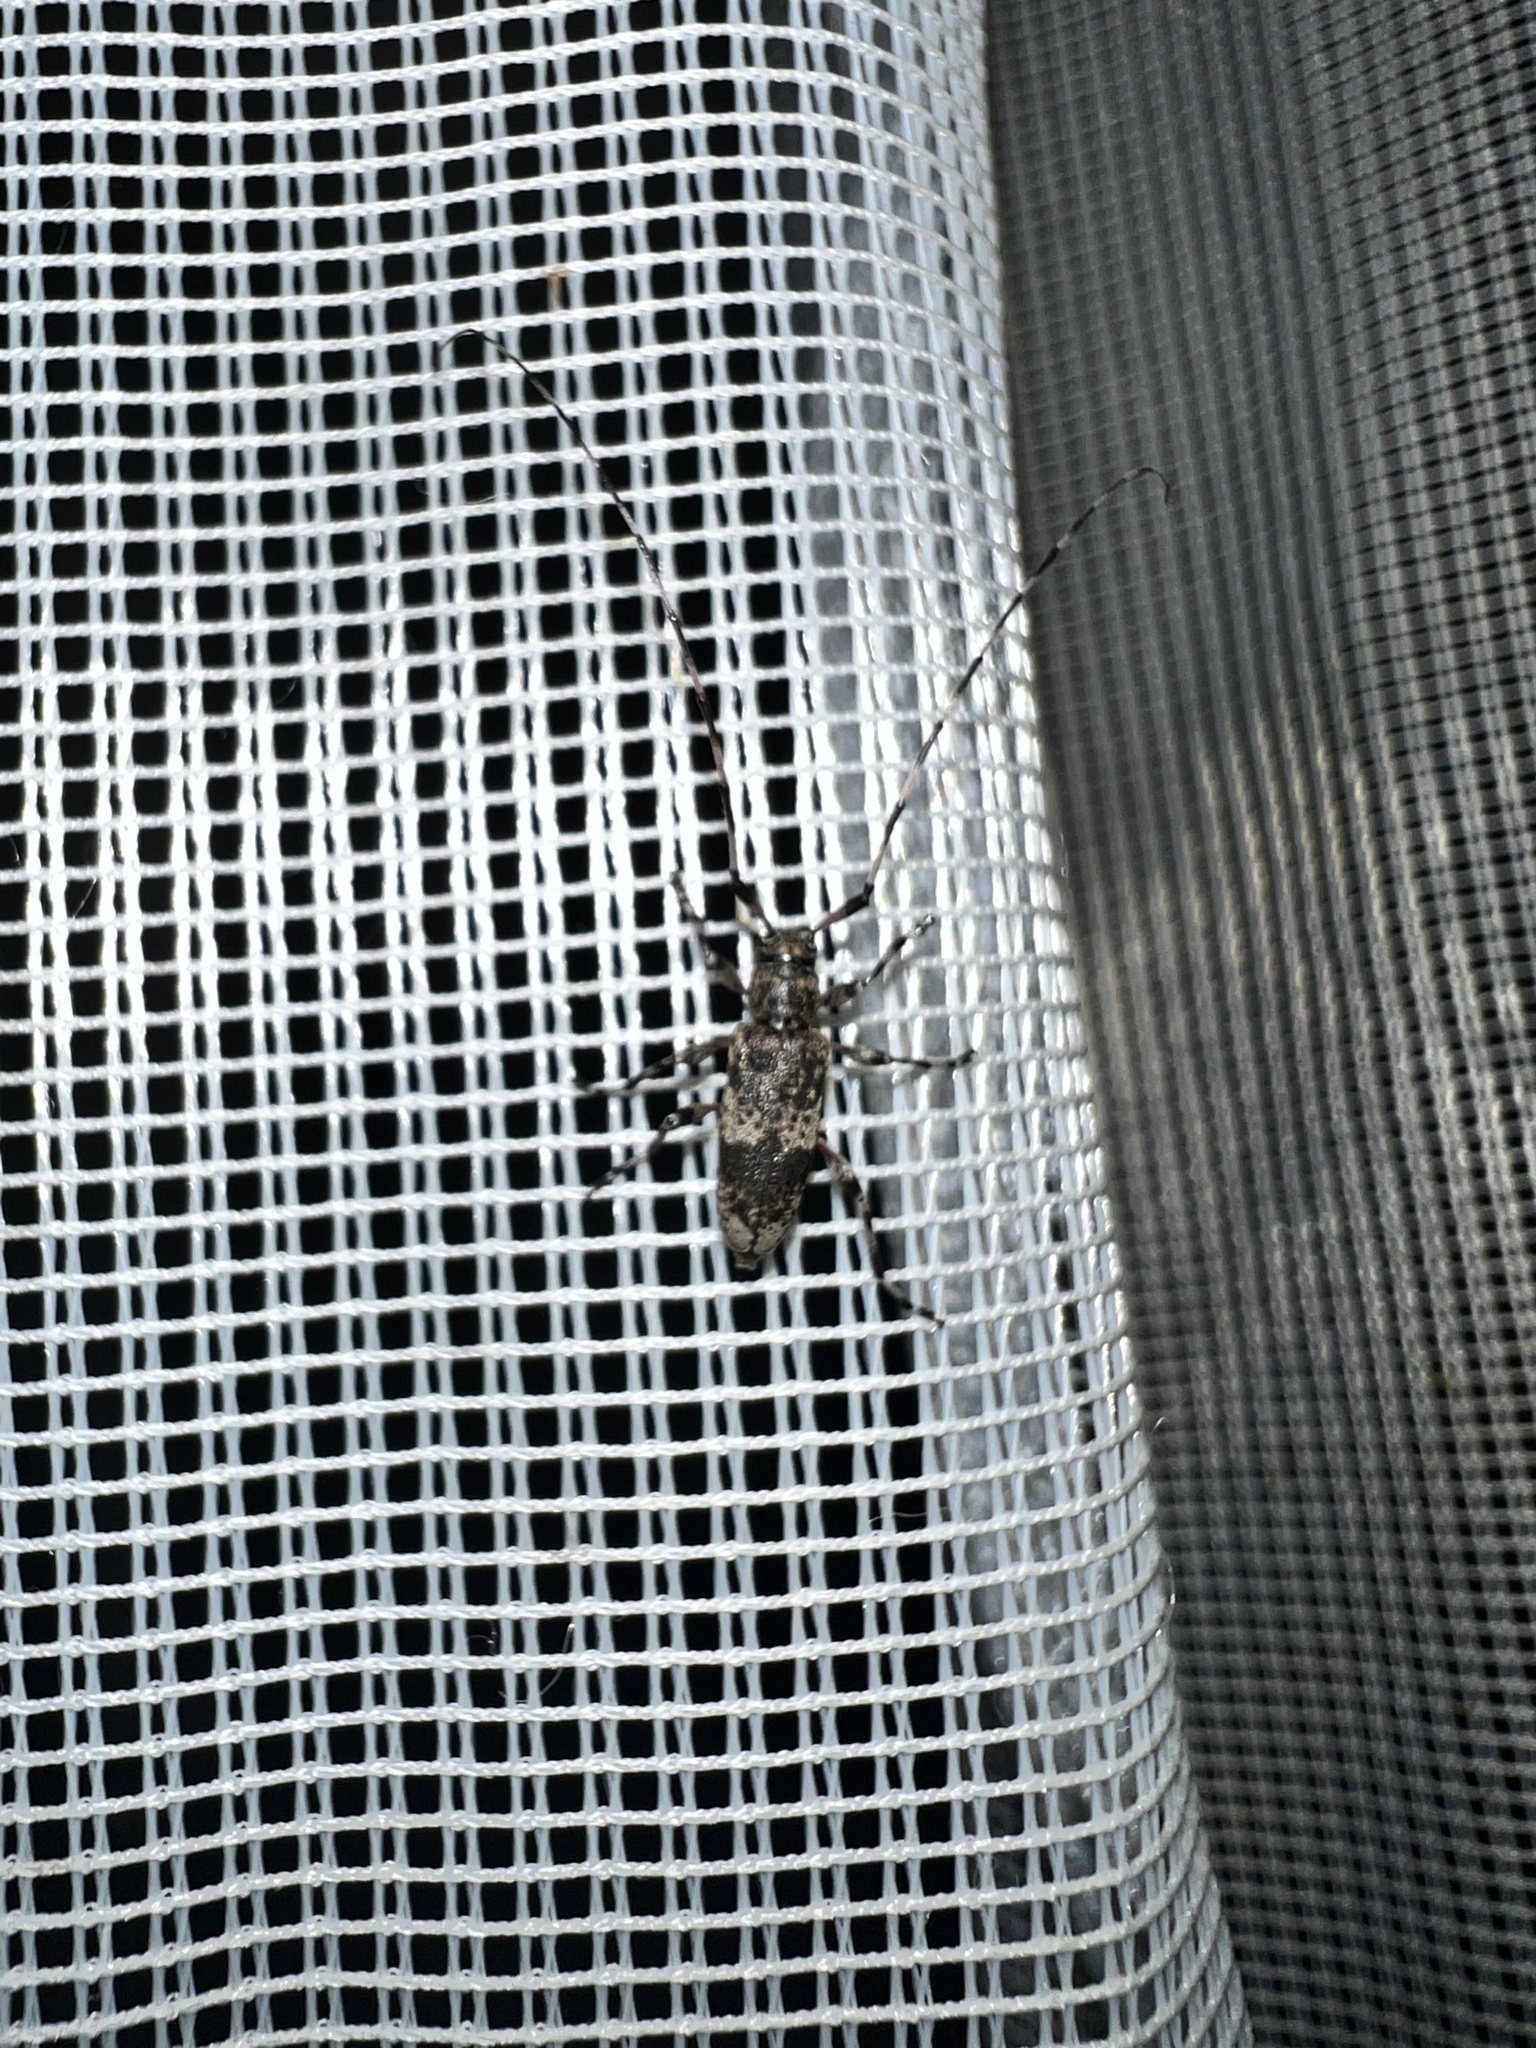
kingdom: Animalia
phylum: Arthropoda
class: Insecta
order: Coleoptera
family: Cerambycidae
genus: Acanthocinus
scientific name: Acanthocinus griseus
